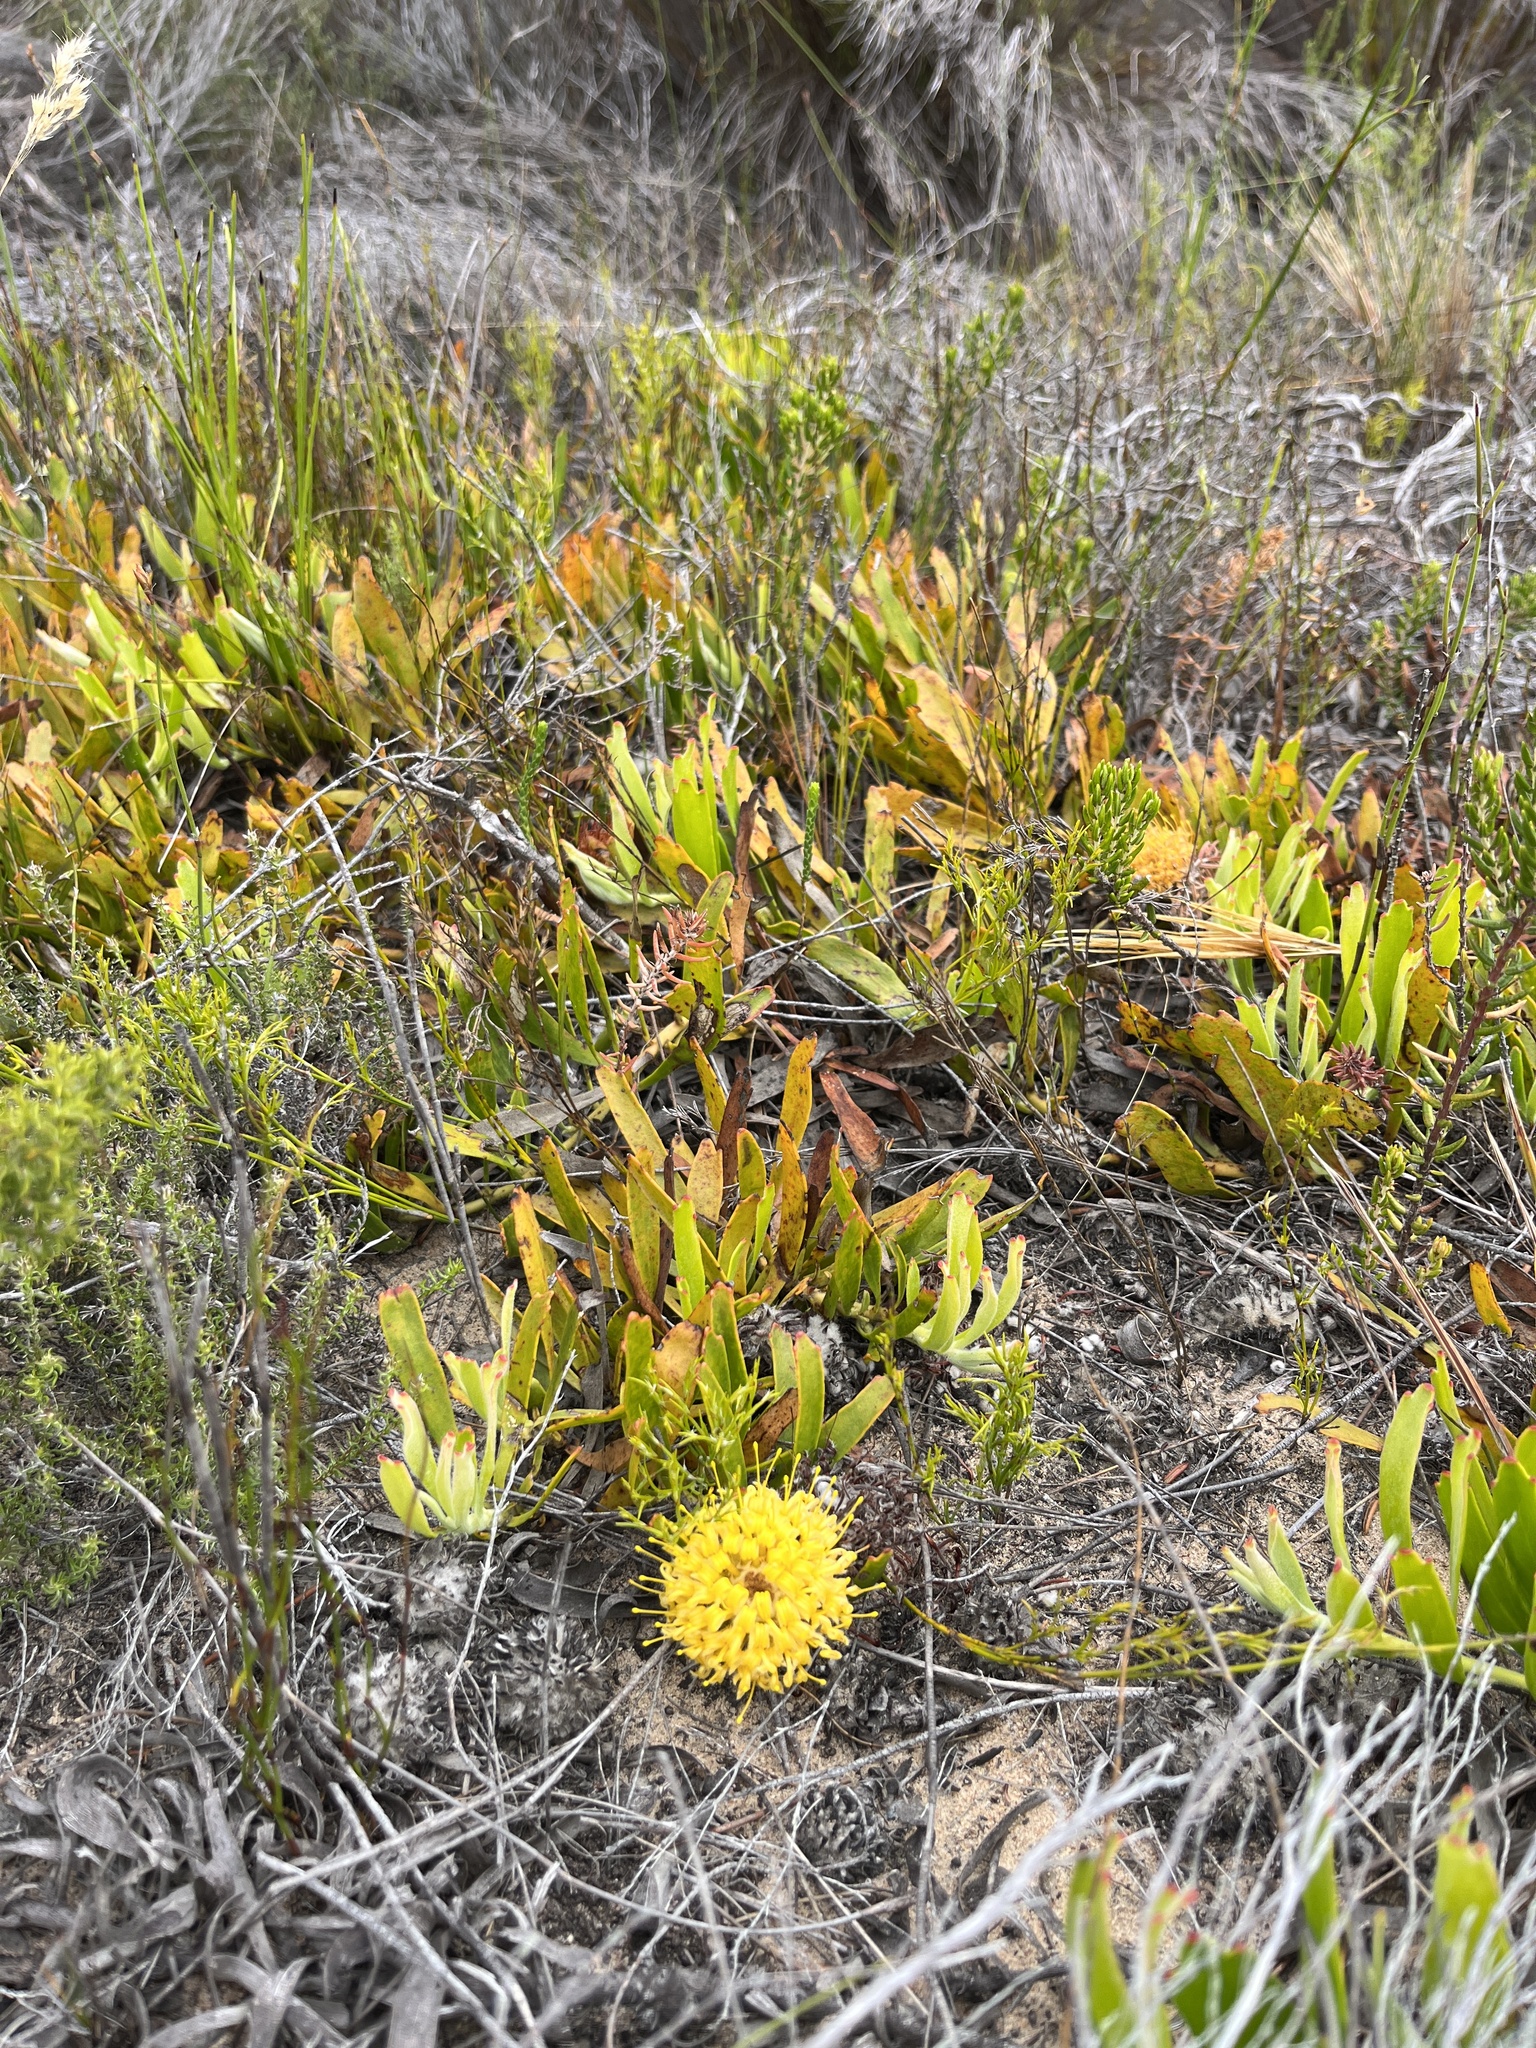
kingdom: Plantae
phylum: Tracheophyta
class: Magnoliopsida
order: Proteales
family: Proteaceae
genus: Leucospermum
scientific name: Leucospermum hypophyllocarpodendron
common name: Snakestem pincushion
